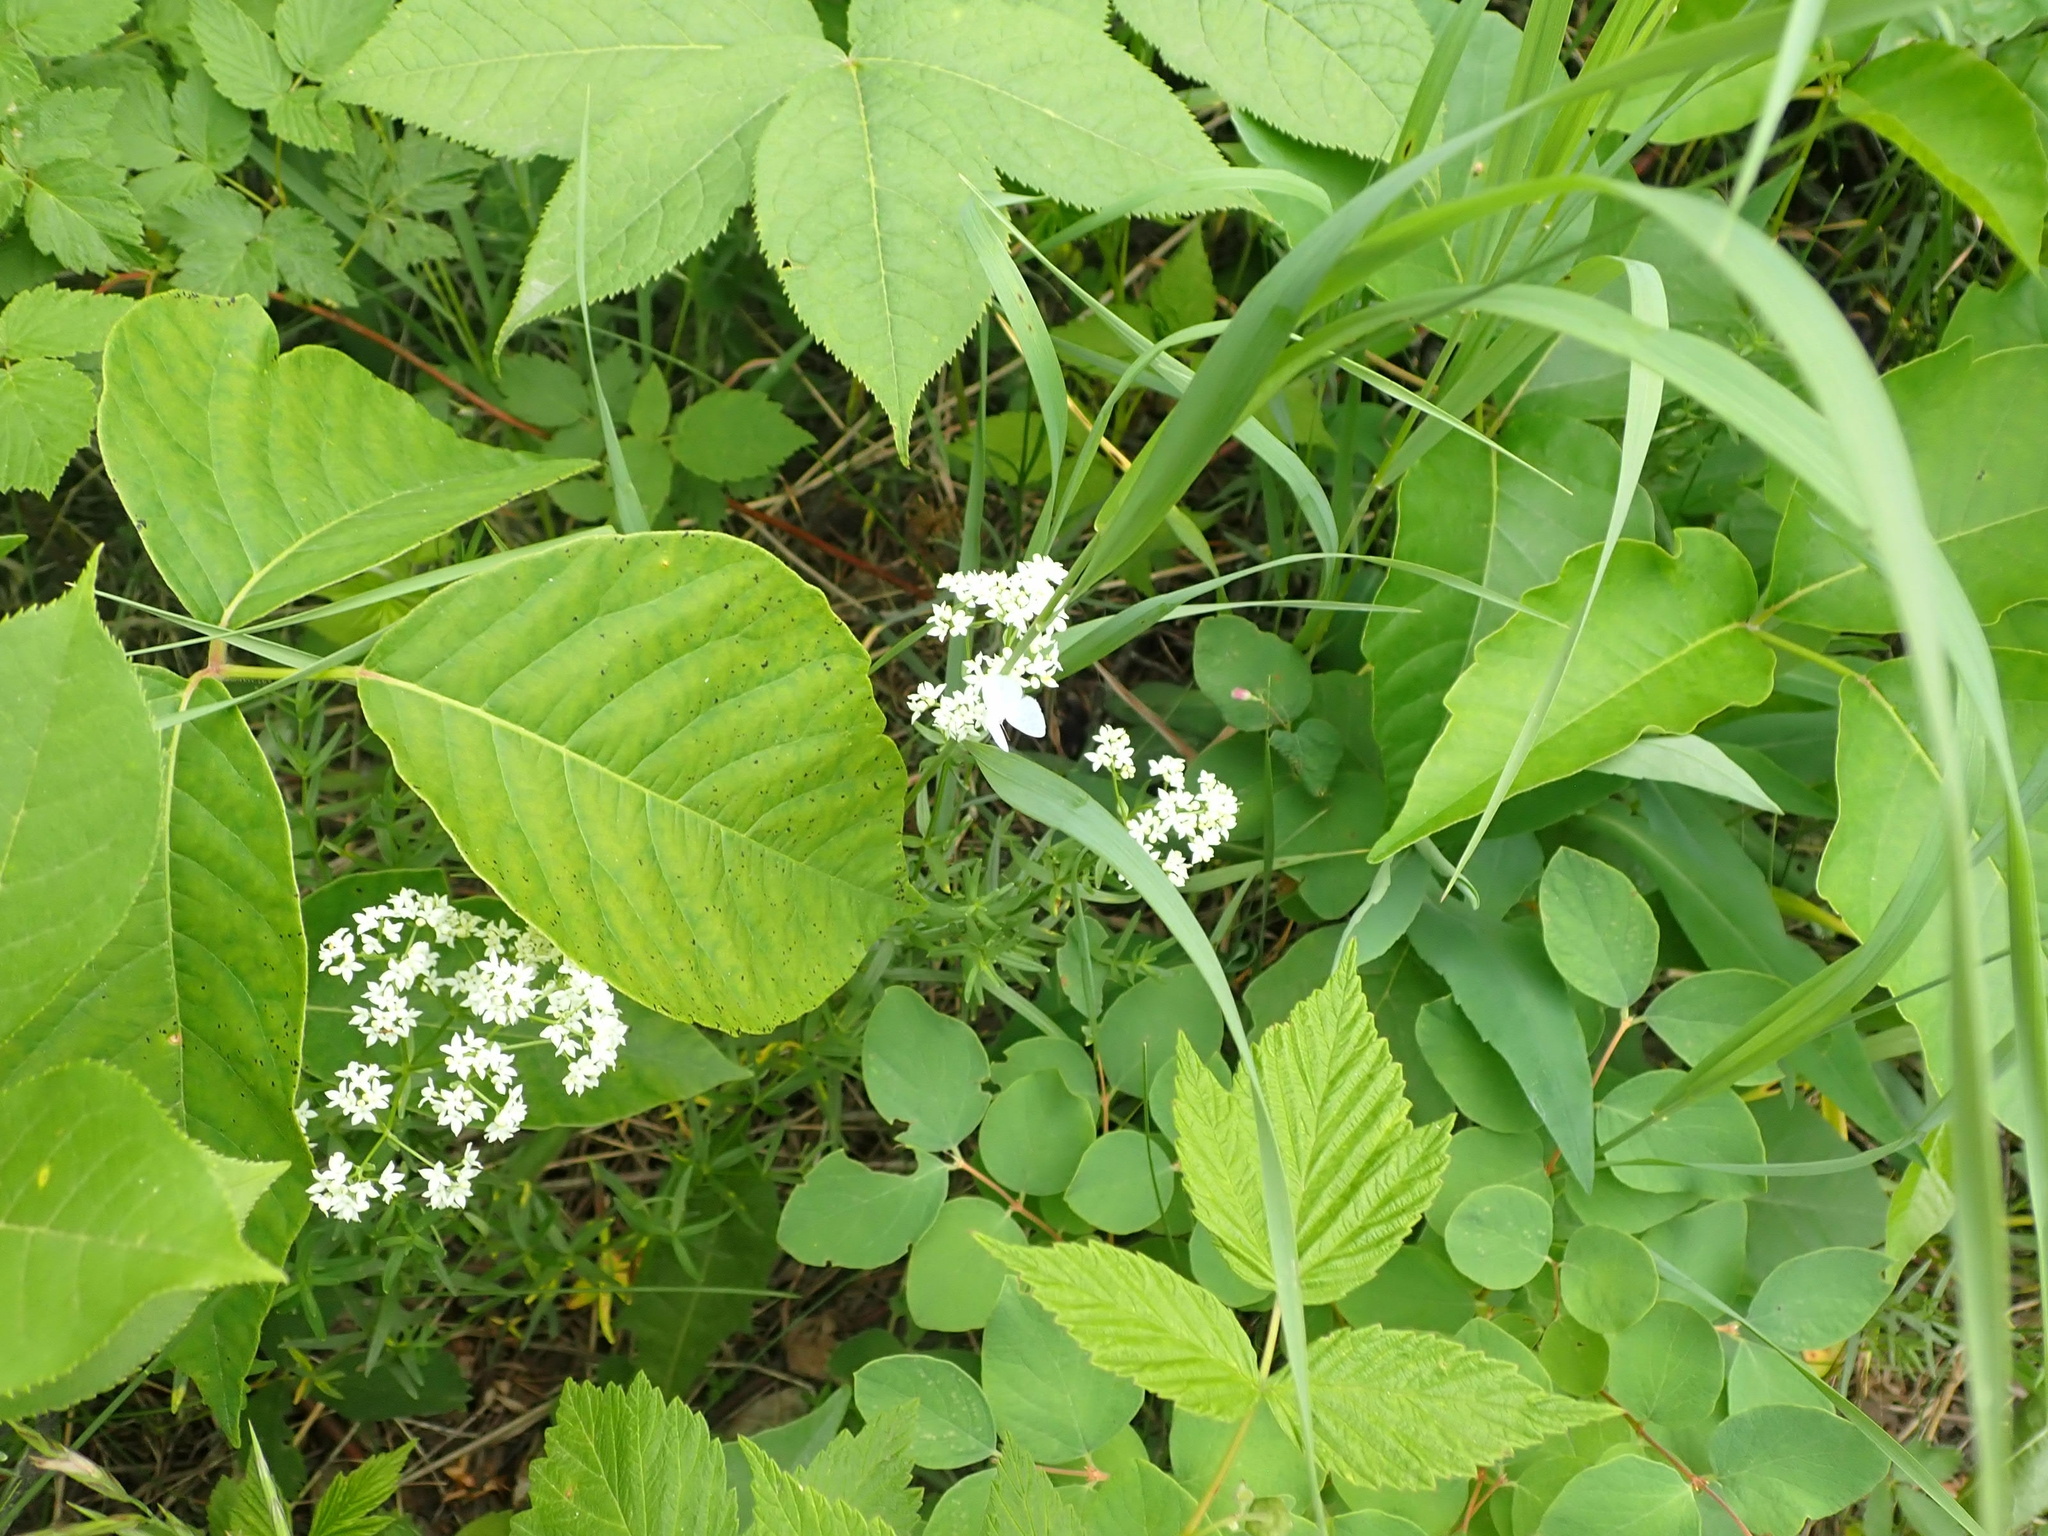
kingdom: Plantae
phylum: Tracheophyta
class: Magnoliopsida
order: Gentianales
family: Rubiaceae
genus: Galium
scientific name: Galium boreale
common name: Northern bedstraw
